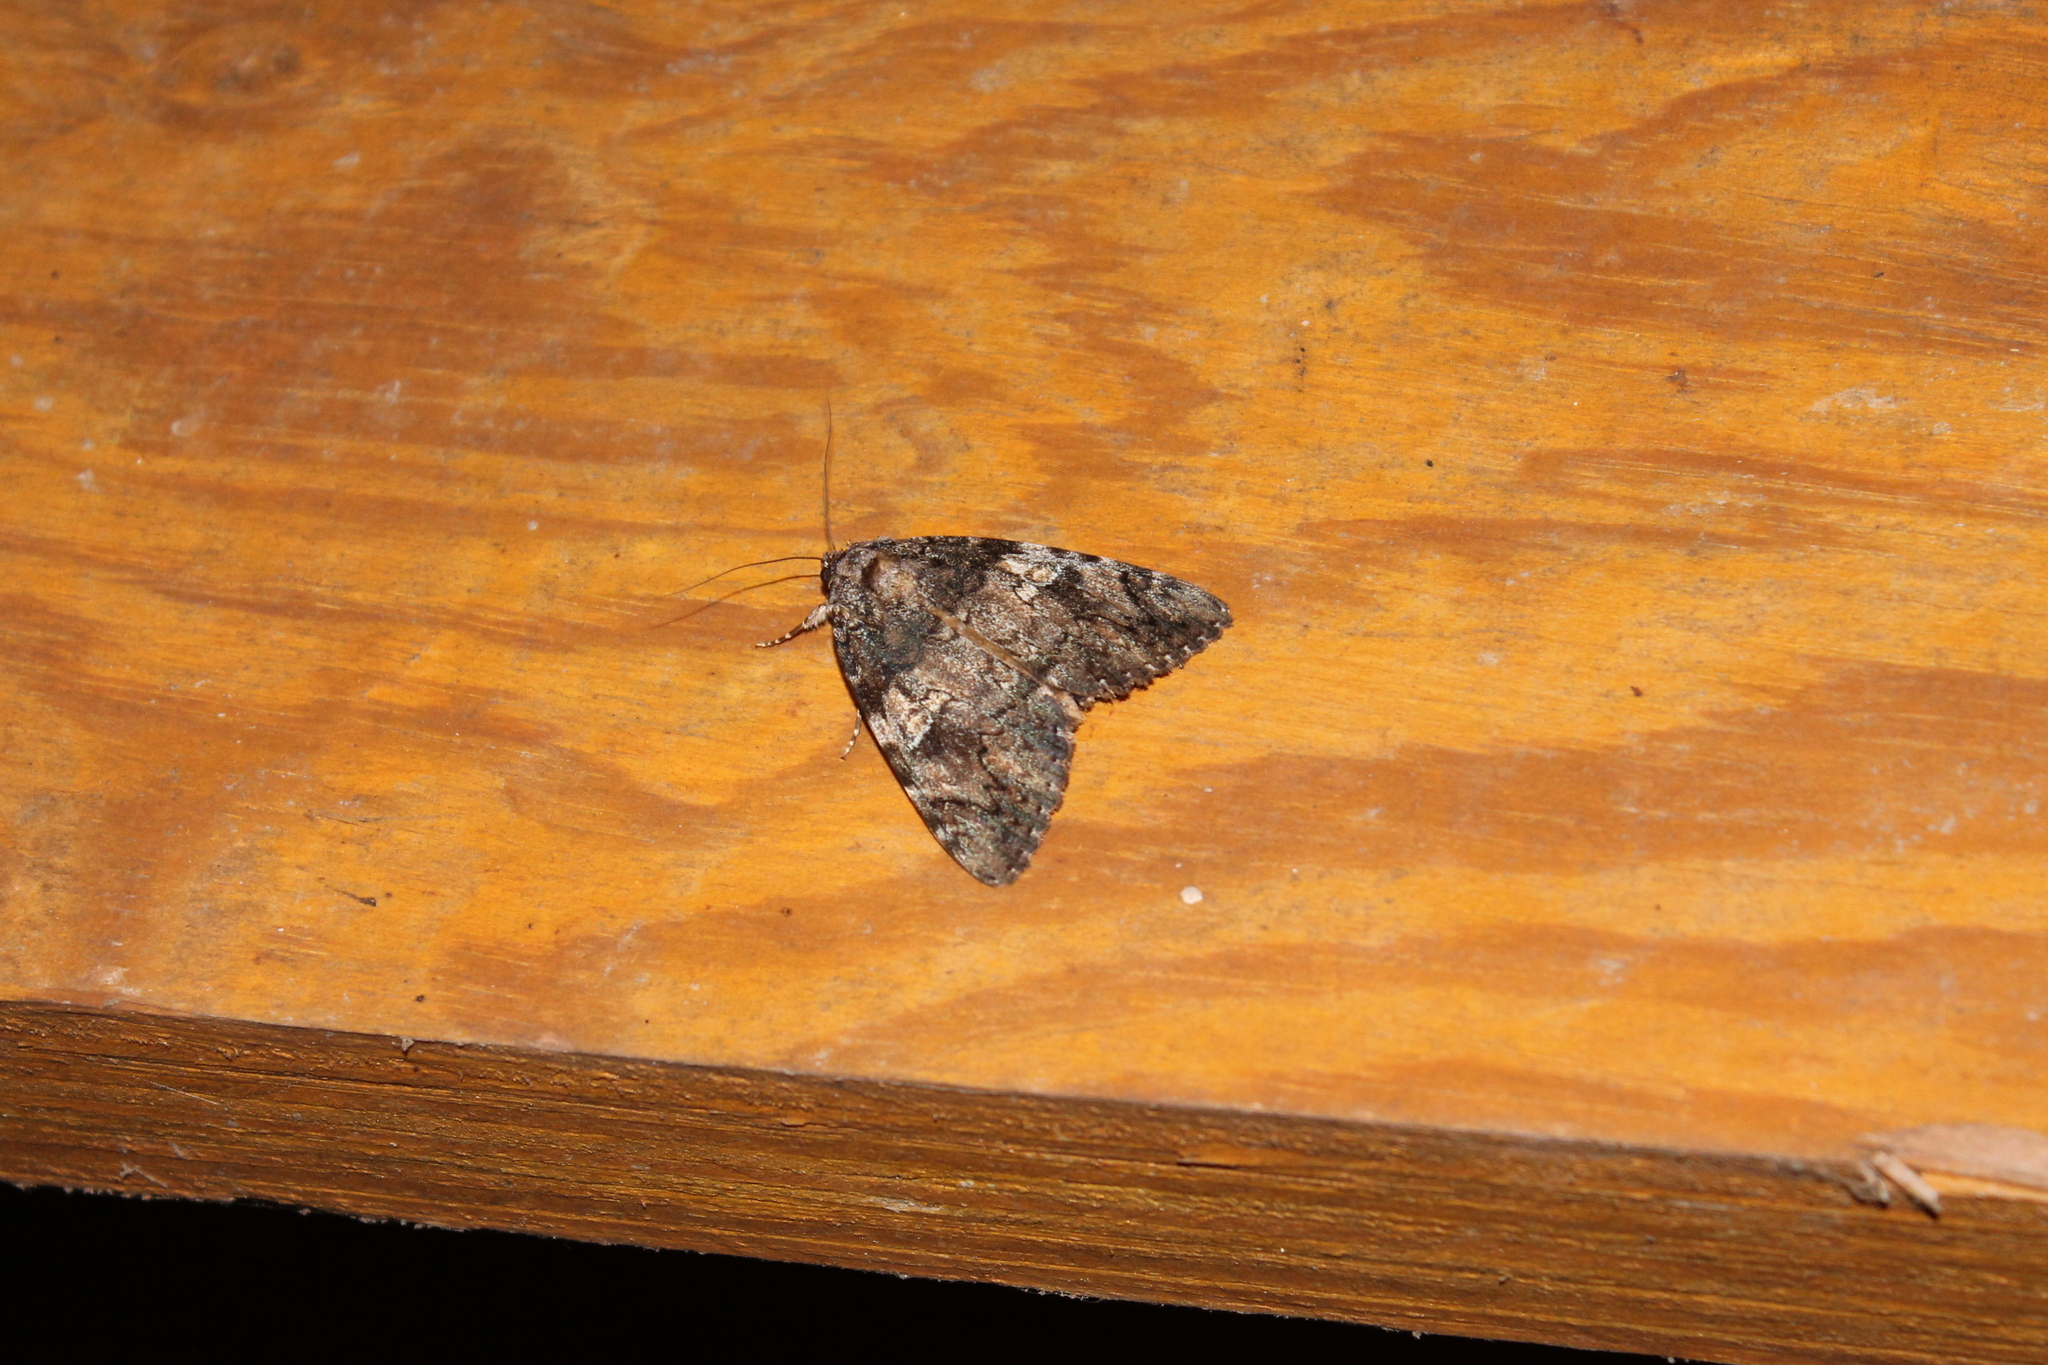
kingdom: Animalia
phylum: Arthropoda
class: Insecta
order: Lepidoptera
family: Erebidae
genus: Catocala
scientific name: Catocala ilia
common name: Ilia underwing
